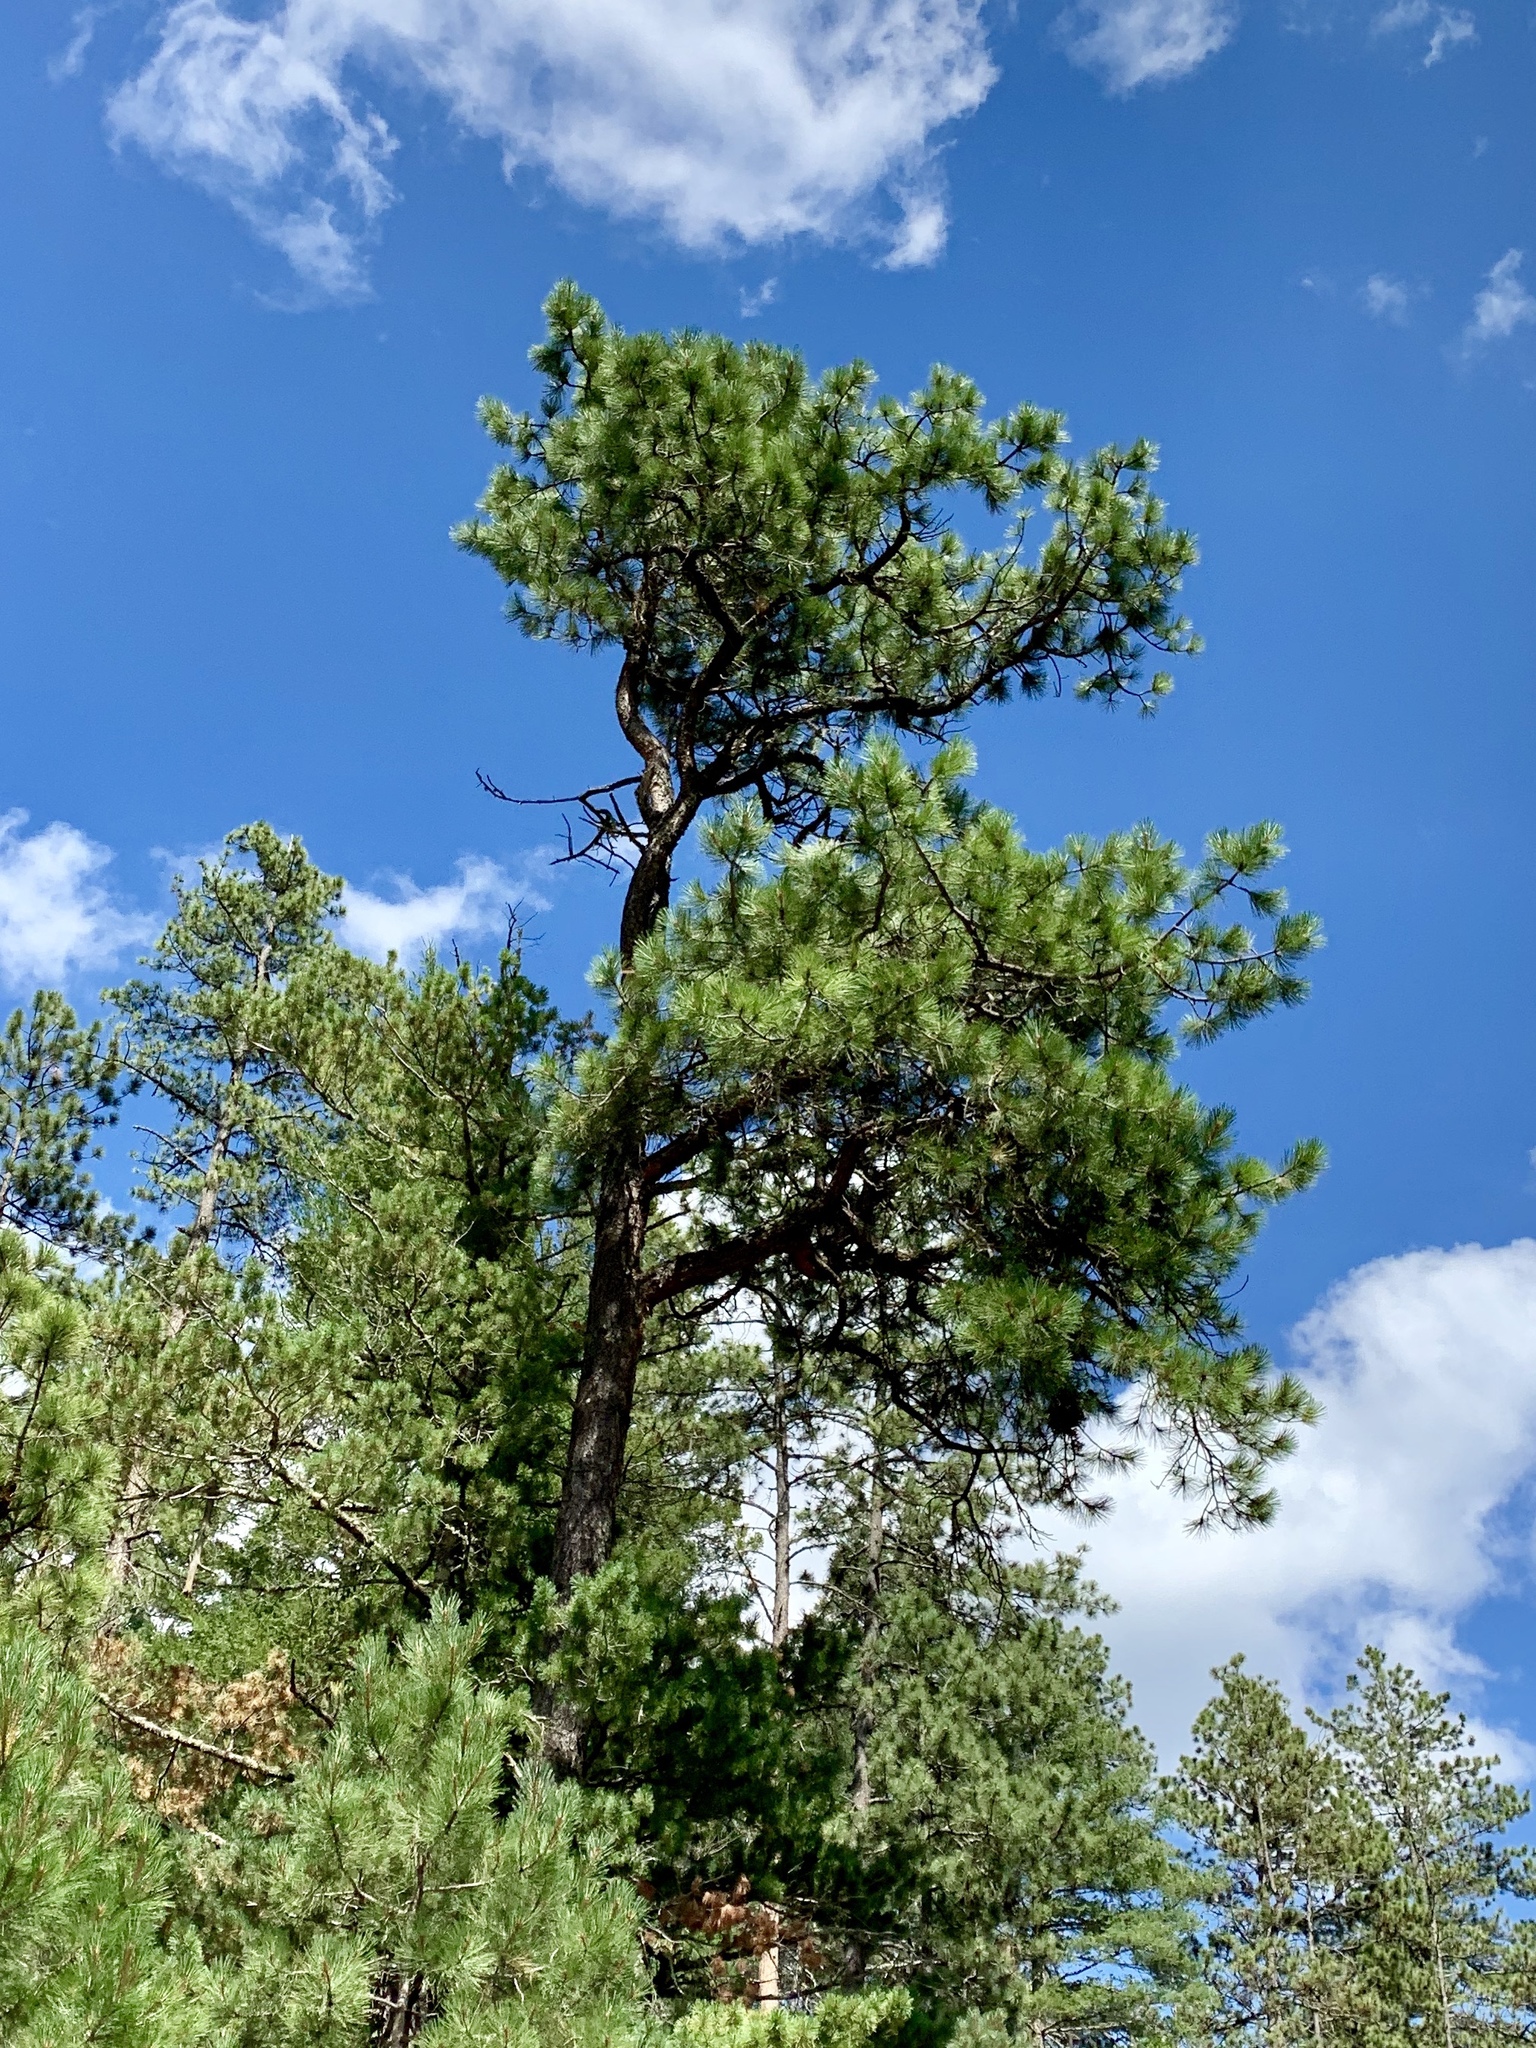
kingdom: Plantae
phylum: Tracheophyta
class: Pinopsida
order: Pinales
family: Pinaceae
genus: Pinus
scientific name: Pinus ponderosa
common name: Western yellow-pine
